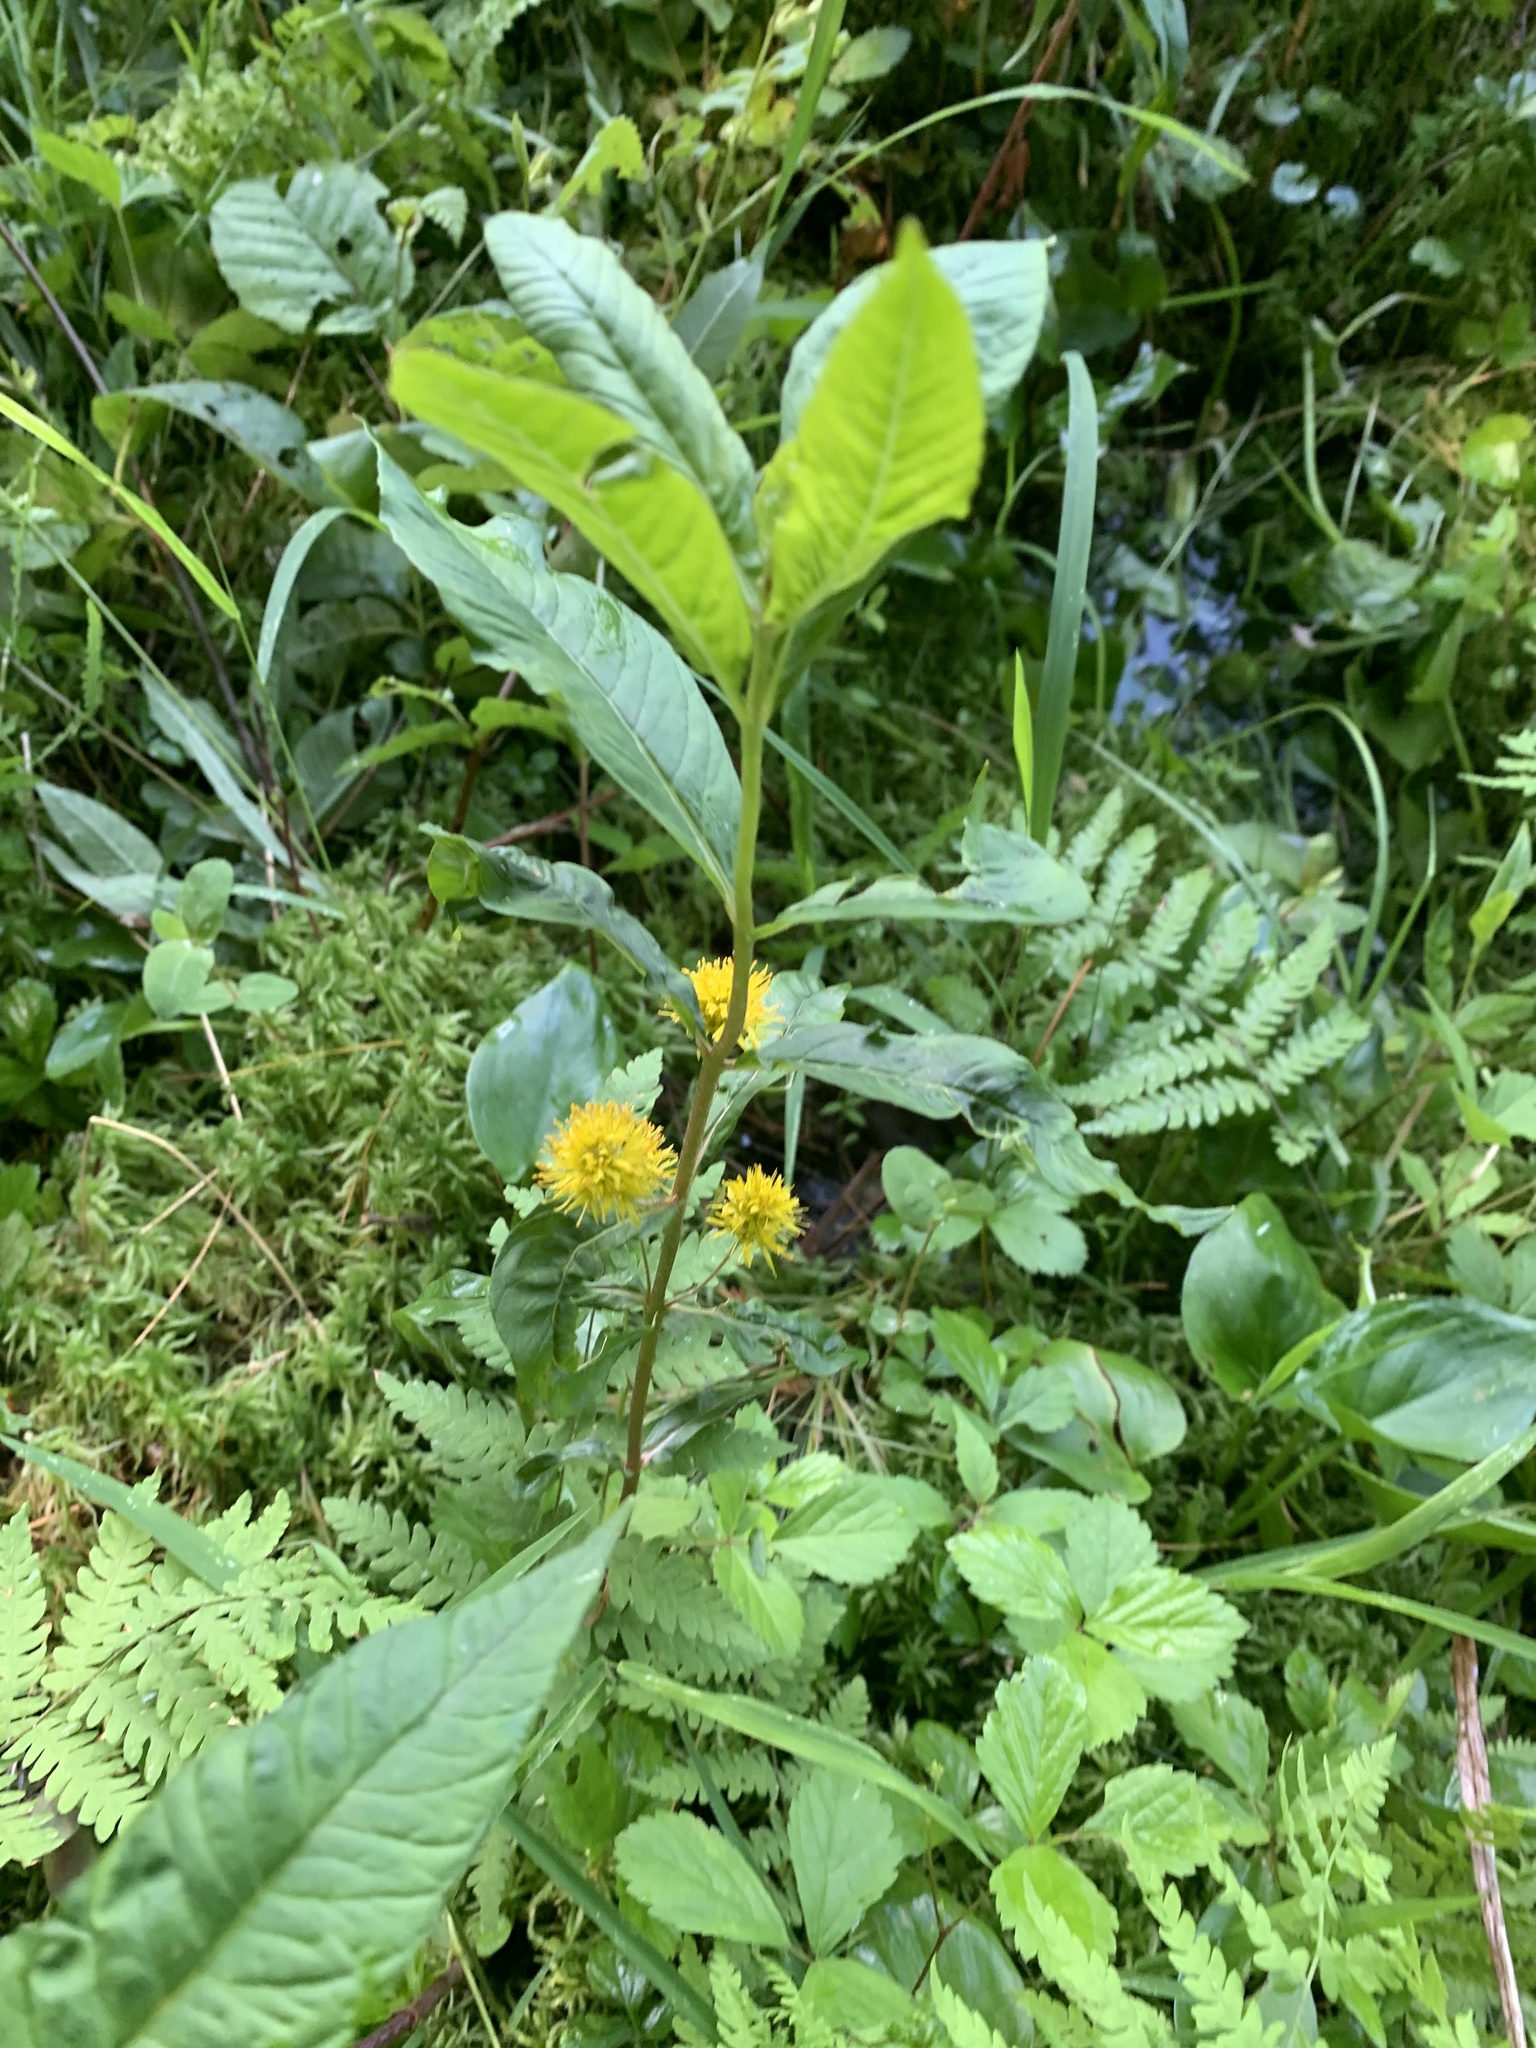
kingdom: Plantae
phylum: Tracheophyta
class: Magnoliopsida
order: Ericales
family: Primulaceae
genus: Lysimachia
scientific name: Lysimachia thyrsiflora
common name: Tufted loosestrife
